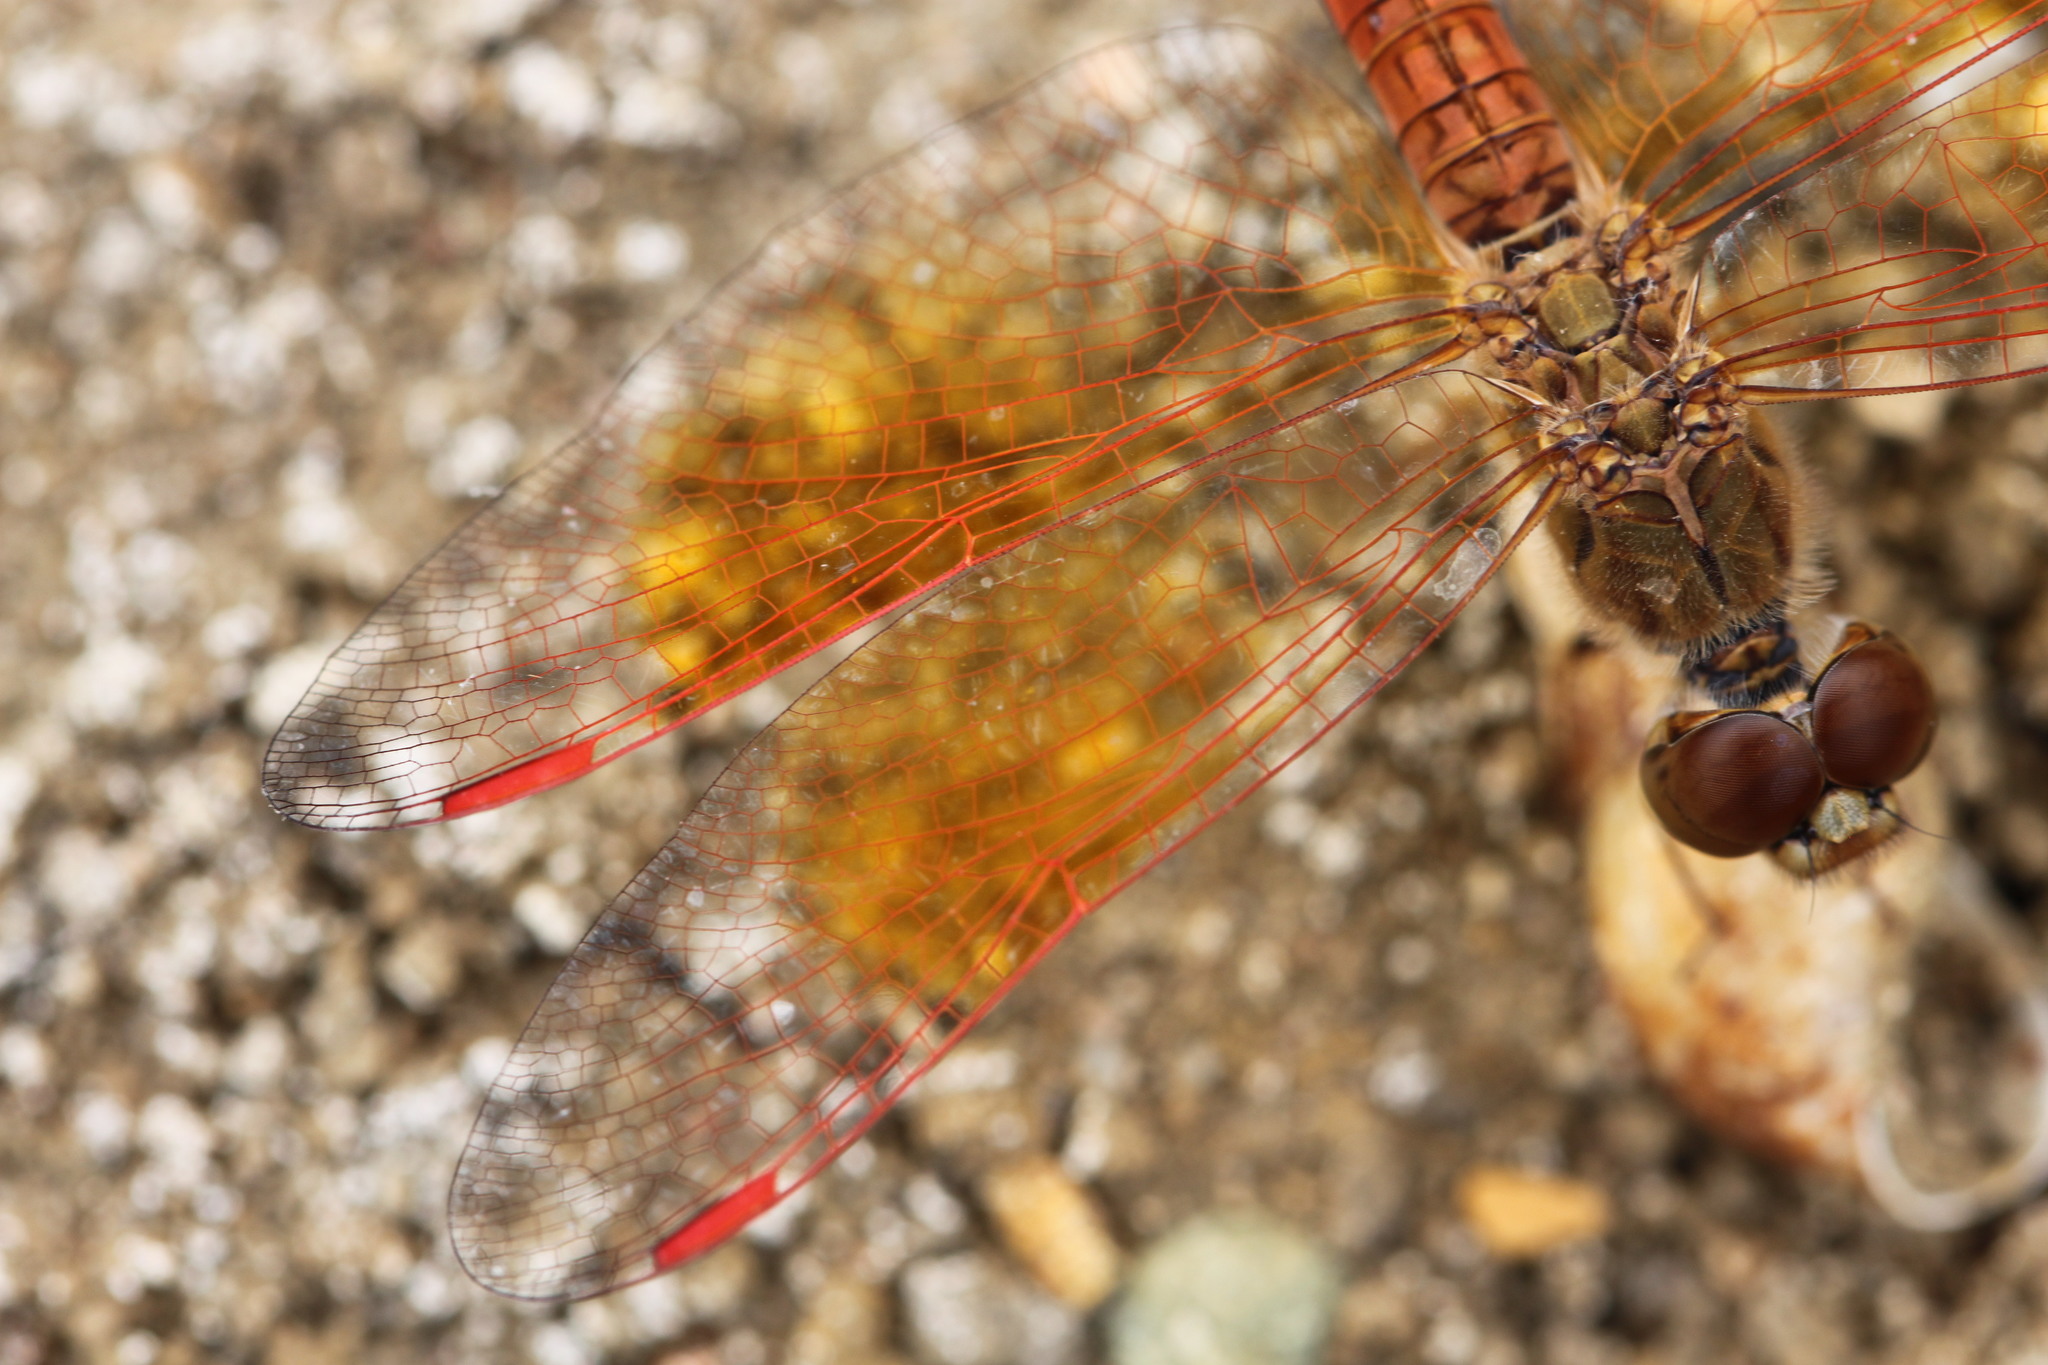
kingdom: Animalia
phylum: Arthropoda
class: Insecta
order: Odonata
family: Libellulidae
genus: Brachythemis
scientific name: Brachythemis contaminata
